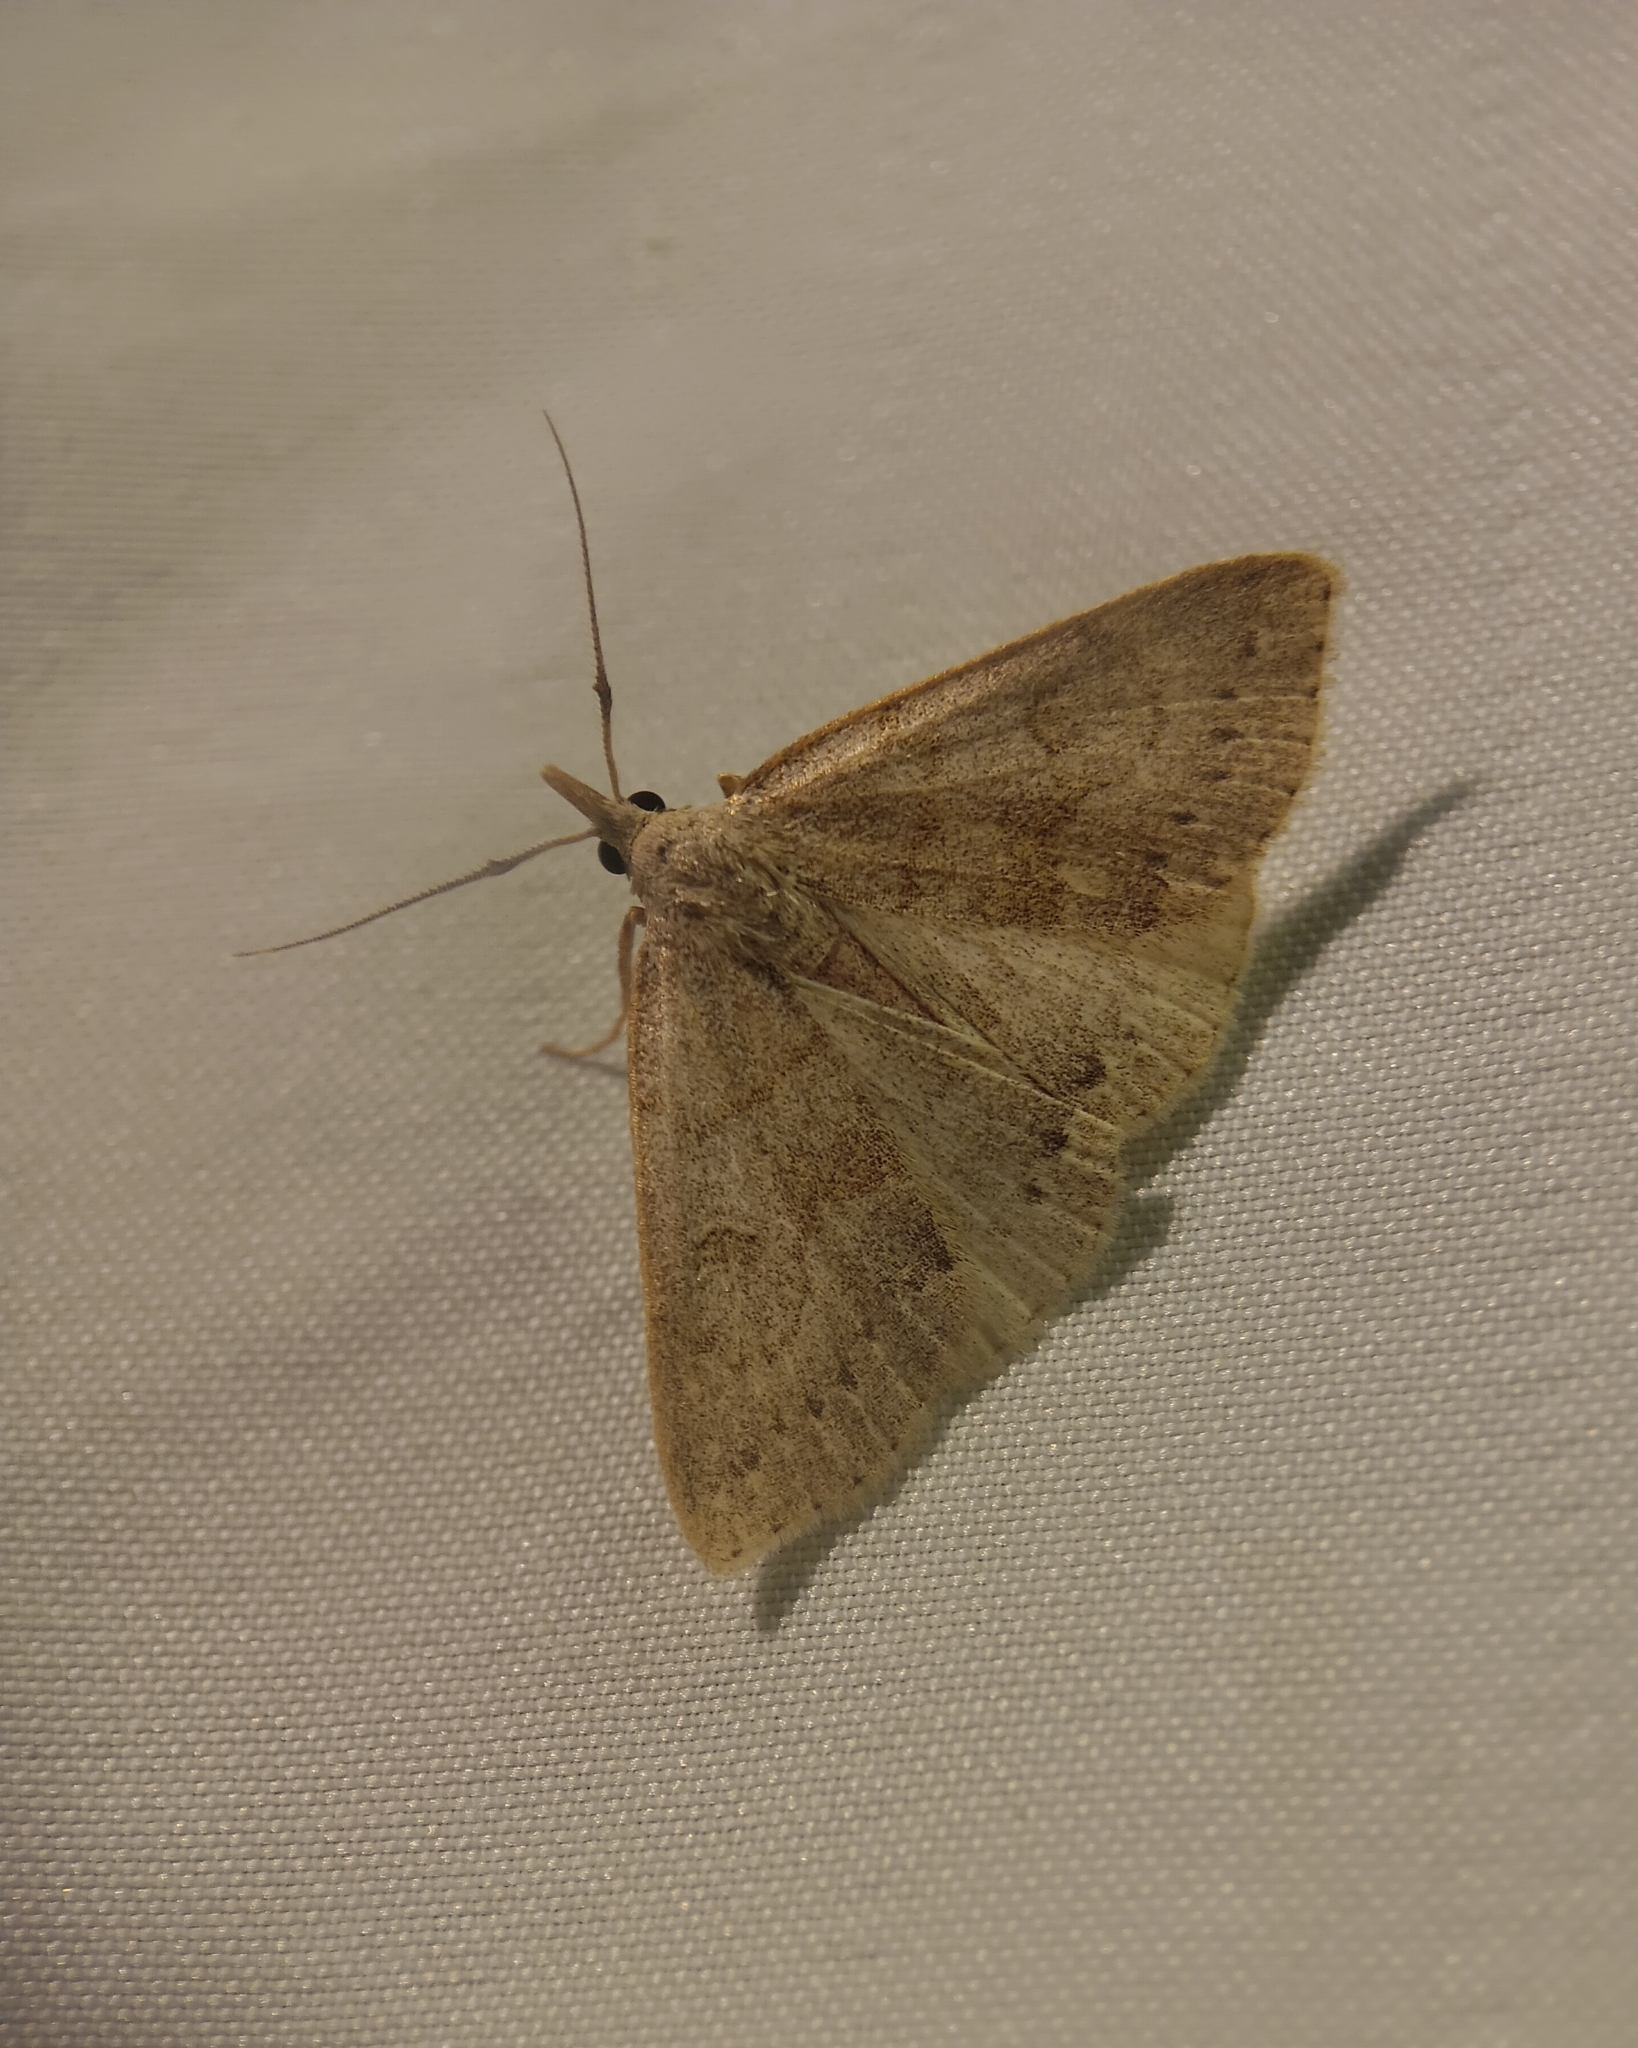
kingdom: Animalia
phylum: Arthropoda
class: Insecta
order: Lepidoptera
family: Erebidae
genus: Macrochilo
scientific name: Macrochilo morbidalis
